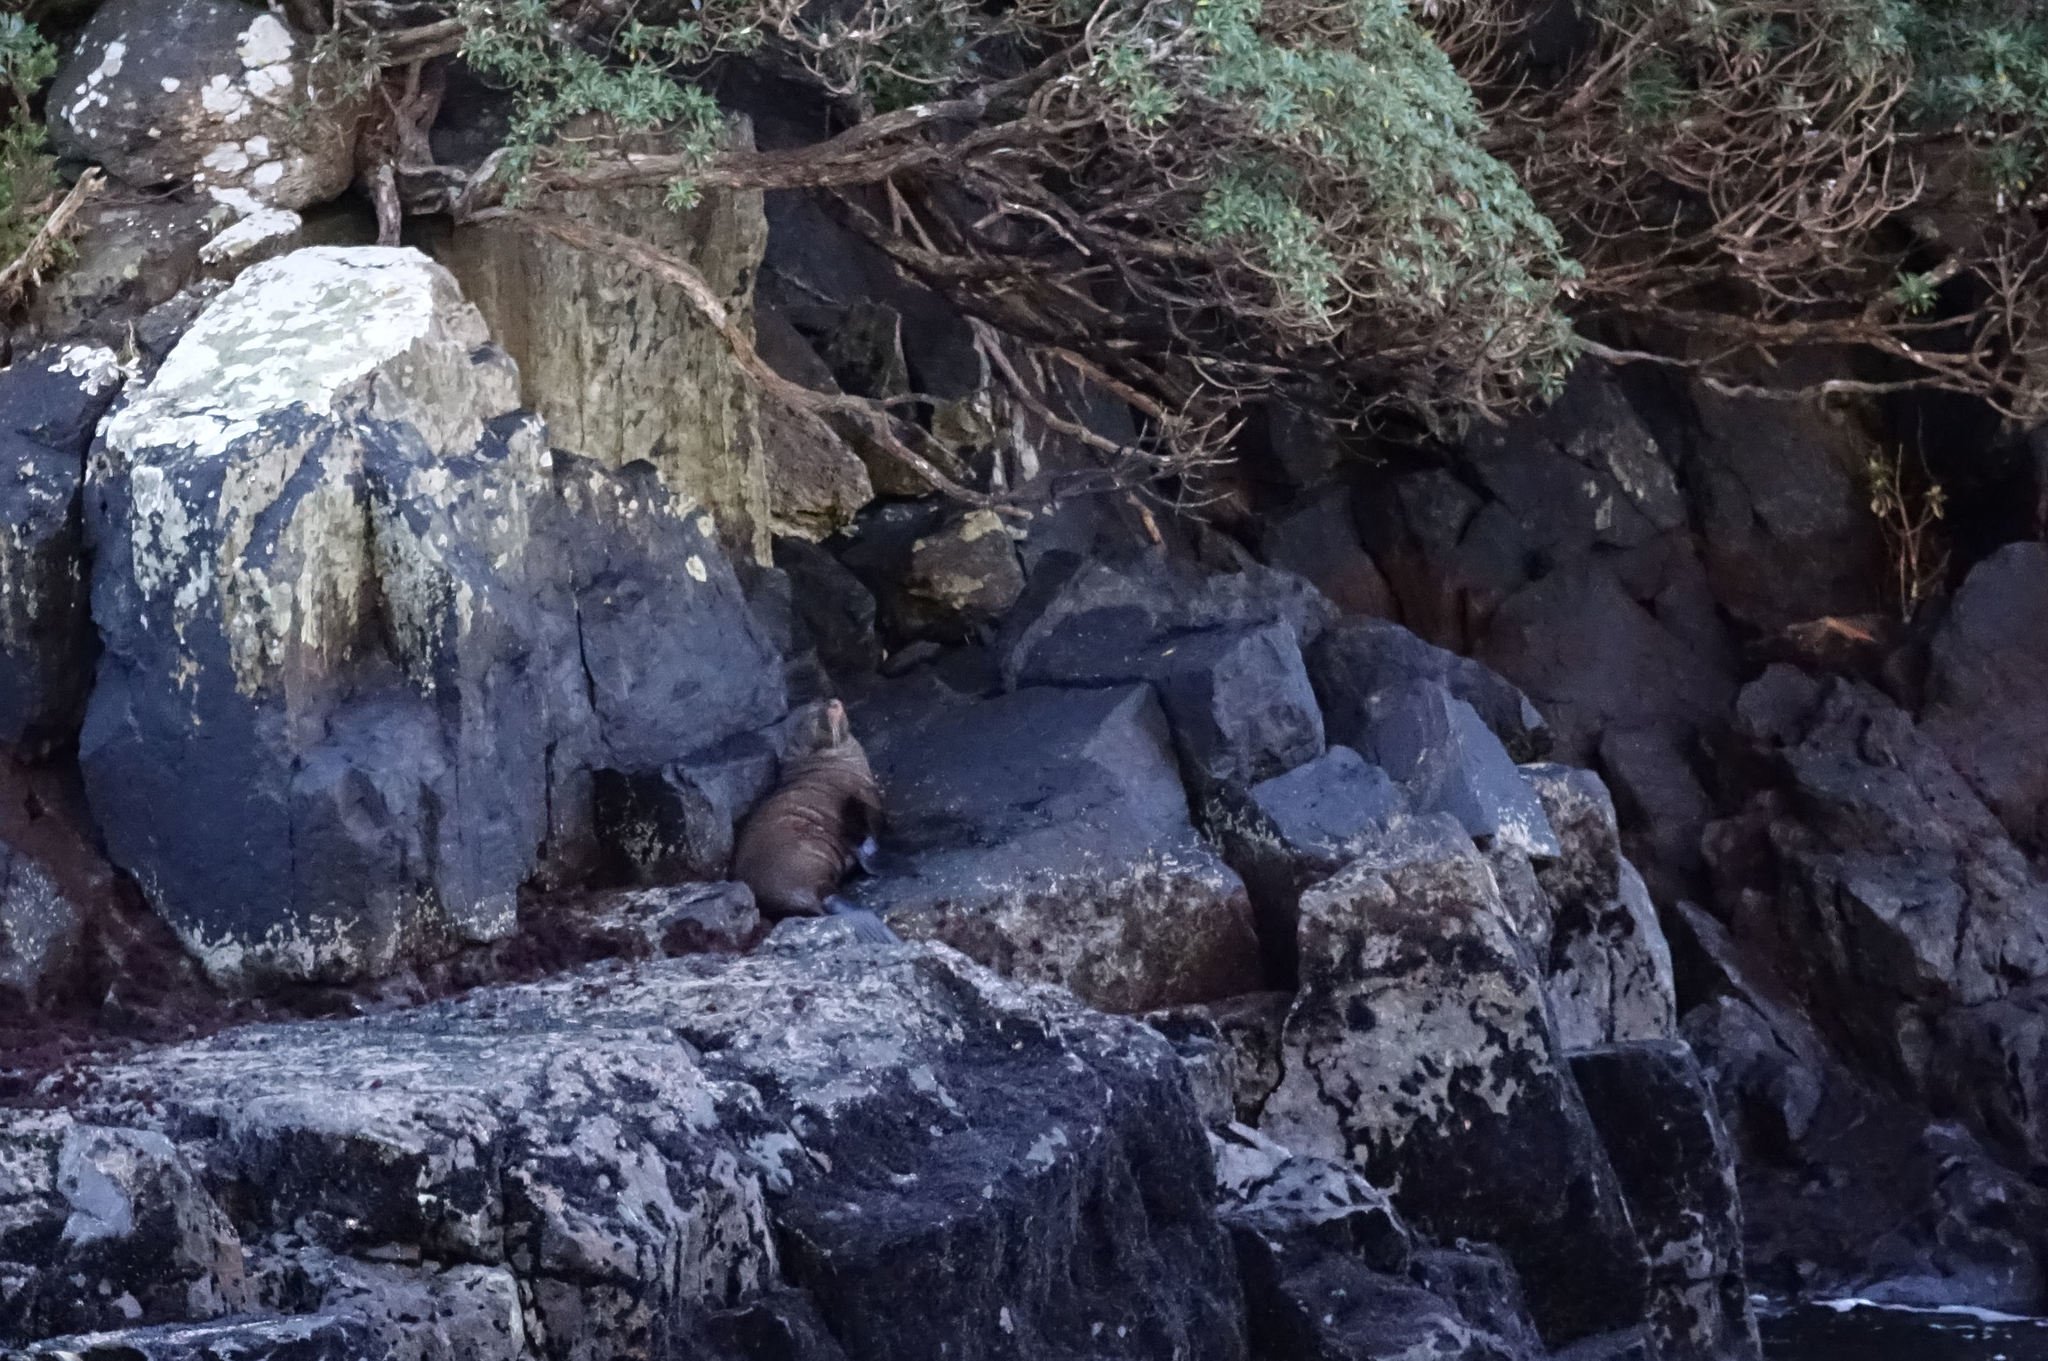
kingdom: Animalia
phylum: Chordata
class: Mammalia
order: Carnivora
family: Otariidae
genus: Arctocephalus
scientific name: Arctocephalus forsteri
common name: New zealand fur seal
